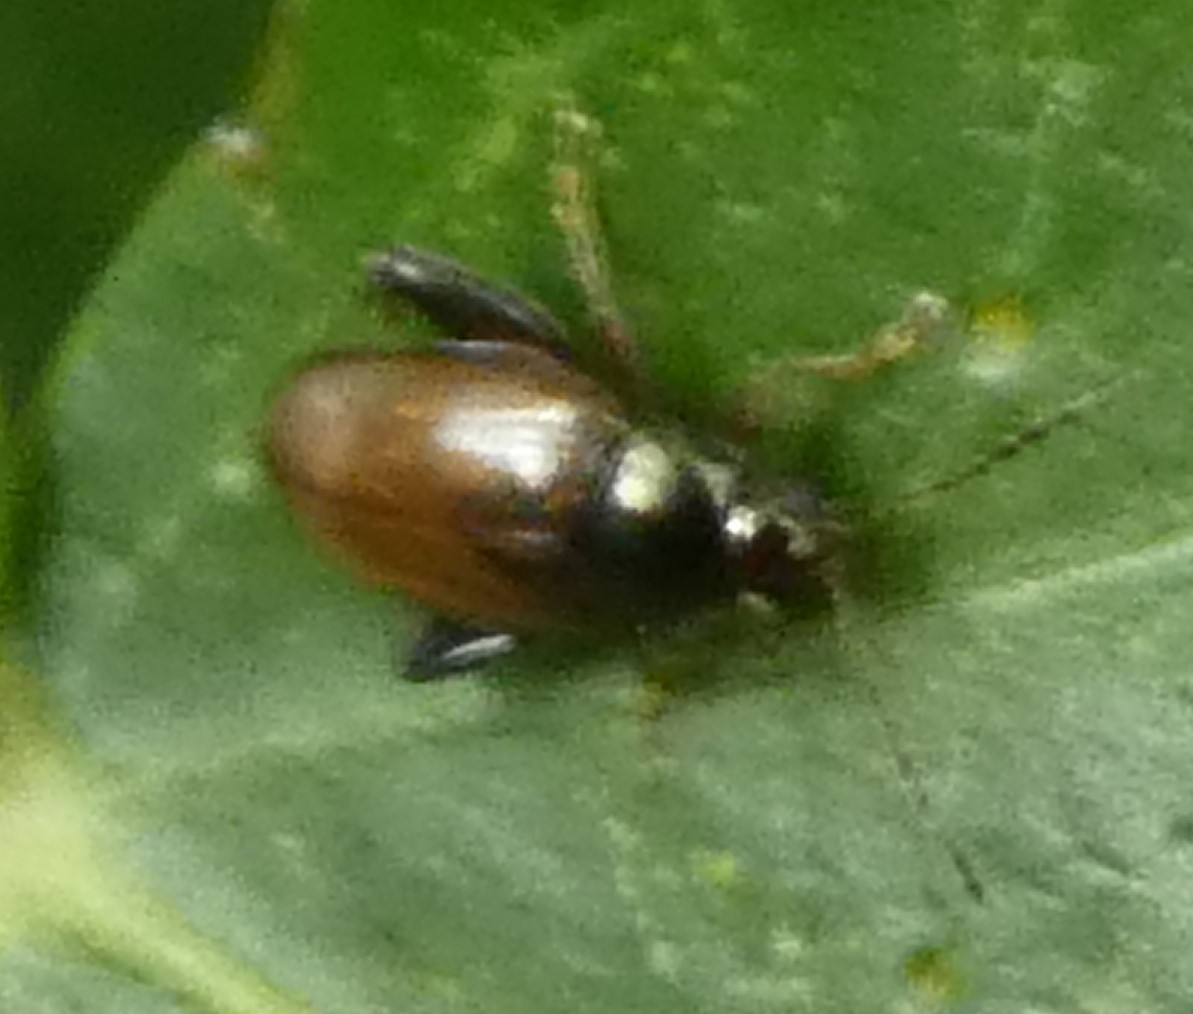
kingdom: Animalia
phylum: Arthropoda
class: Insecta
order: Coleoptera
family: Chrysomelidae
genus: Psylliodes
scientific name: Psylliodes chrysocephalus
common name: Cabbage-stem flea beetle
